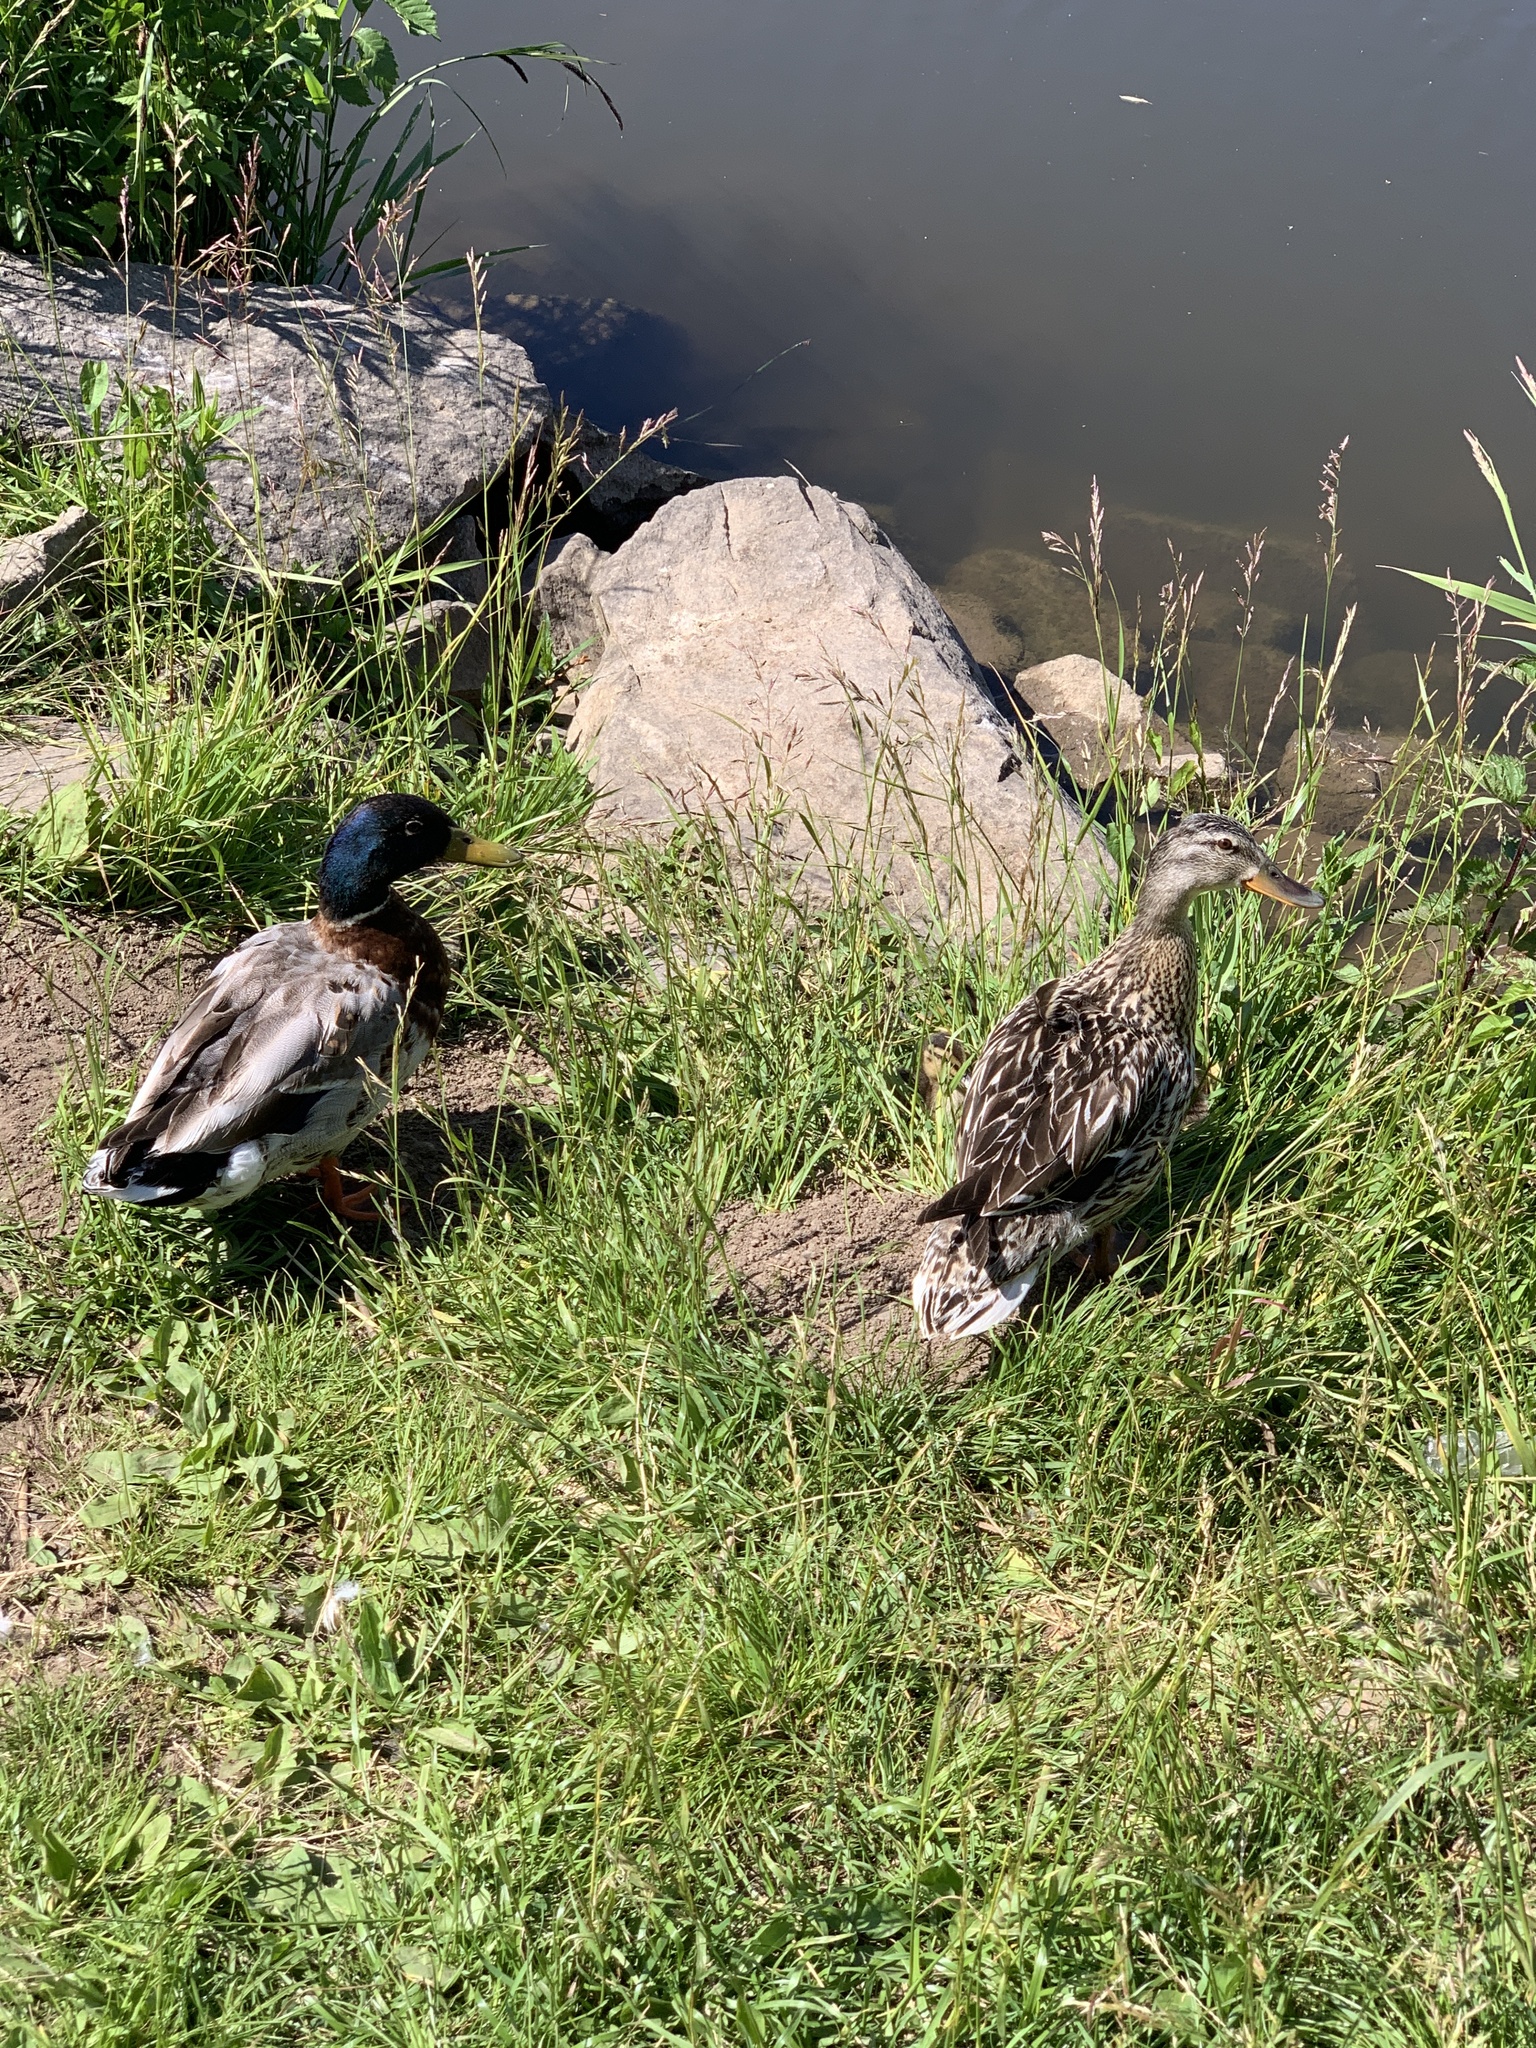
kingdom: Animalia
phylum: Chordata
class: Aves
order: Anseriformes
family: Anatidae
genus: Anas
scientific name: Anas platyrhynchos
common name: Mallard
